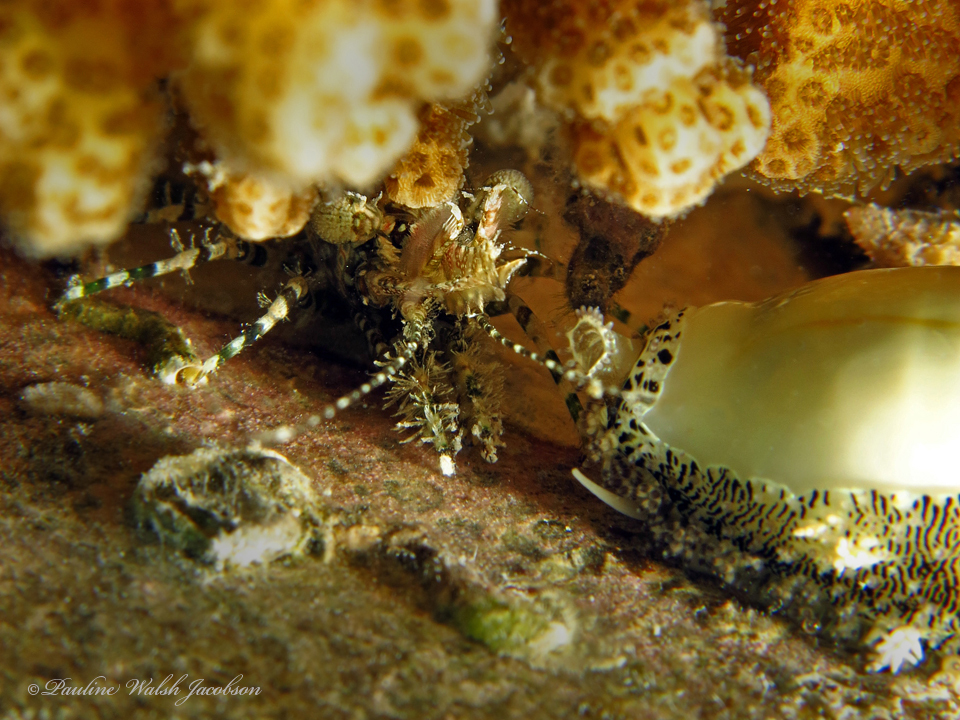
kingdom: Animalia
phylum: Arthropoda
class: Malacostraca
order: Decapoda
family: Hippolytidae
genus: Saron
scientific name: Saron marmoratus
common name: Common marble shrimp
